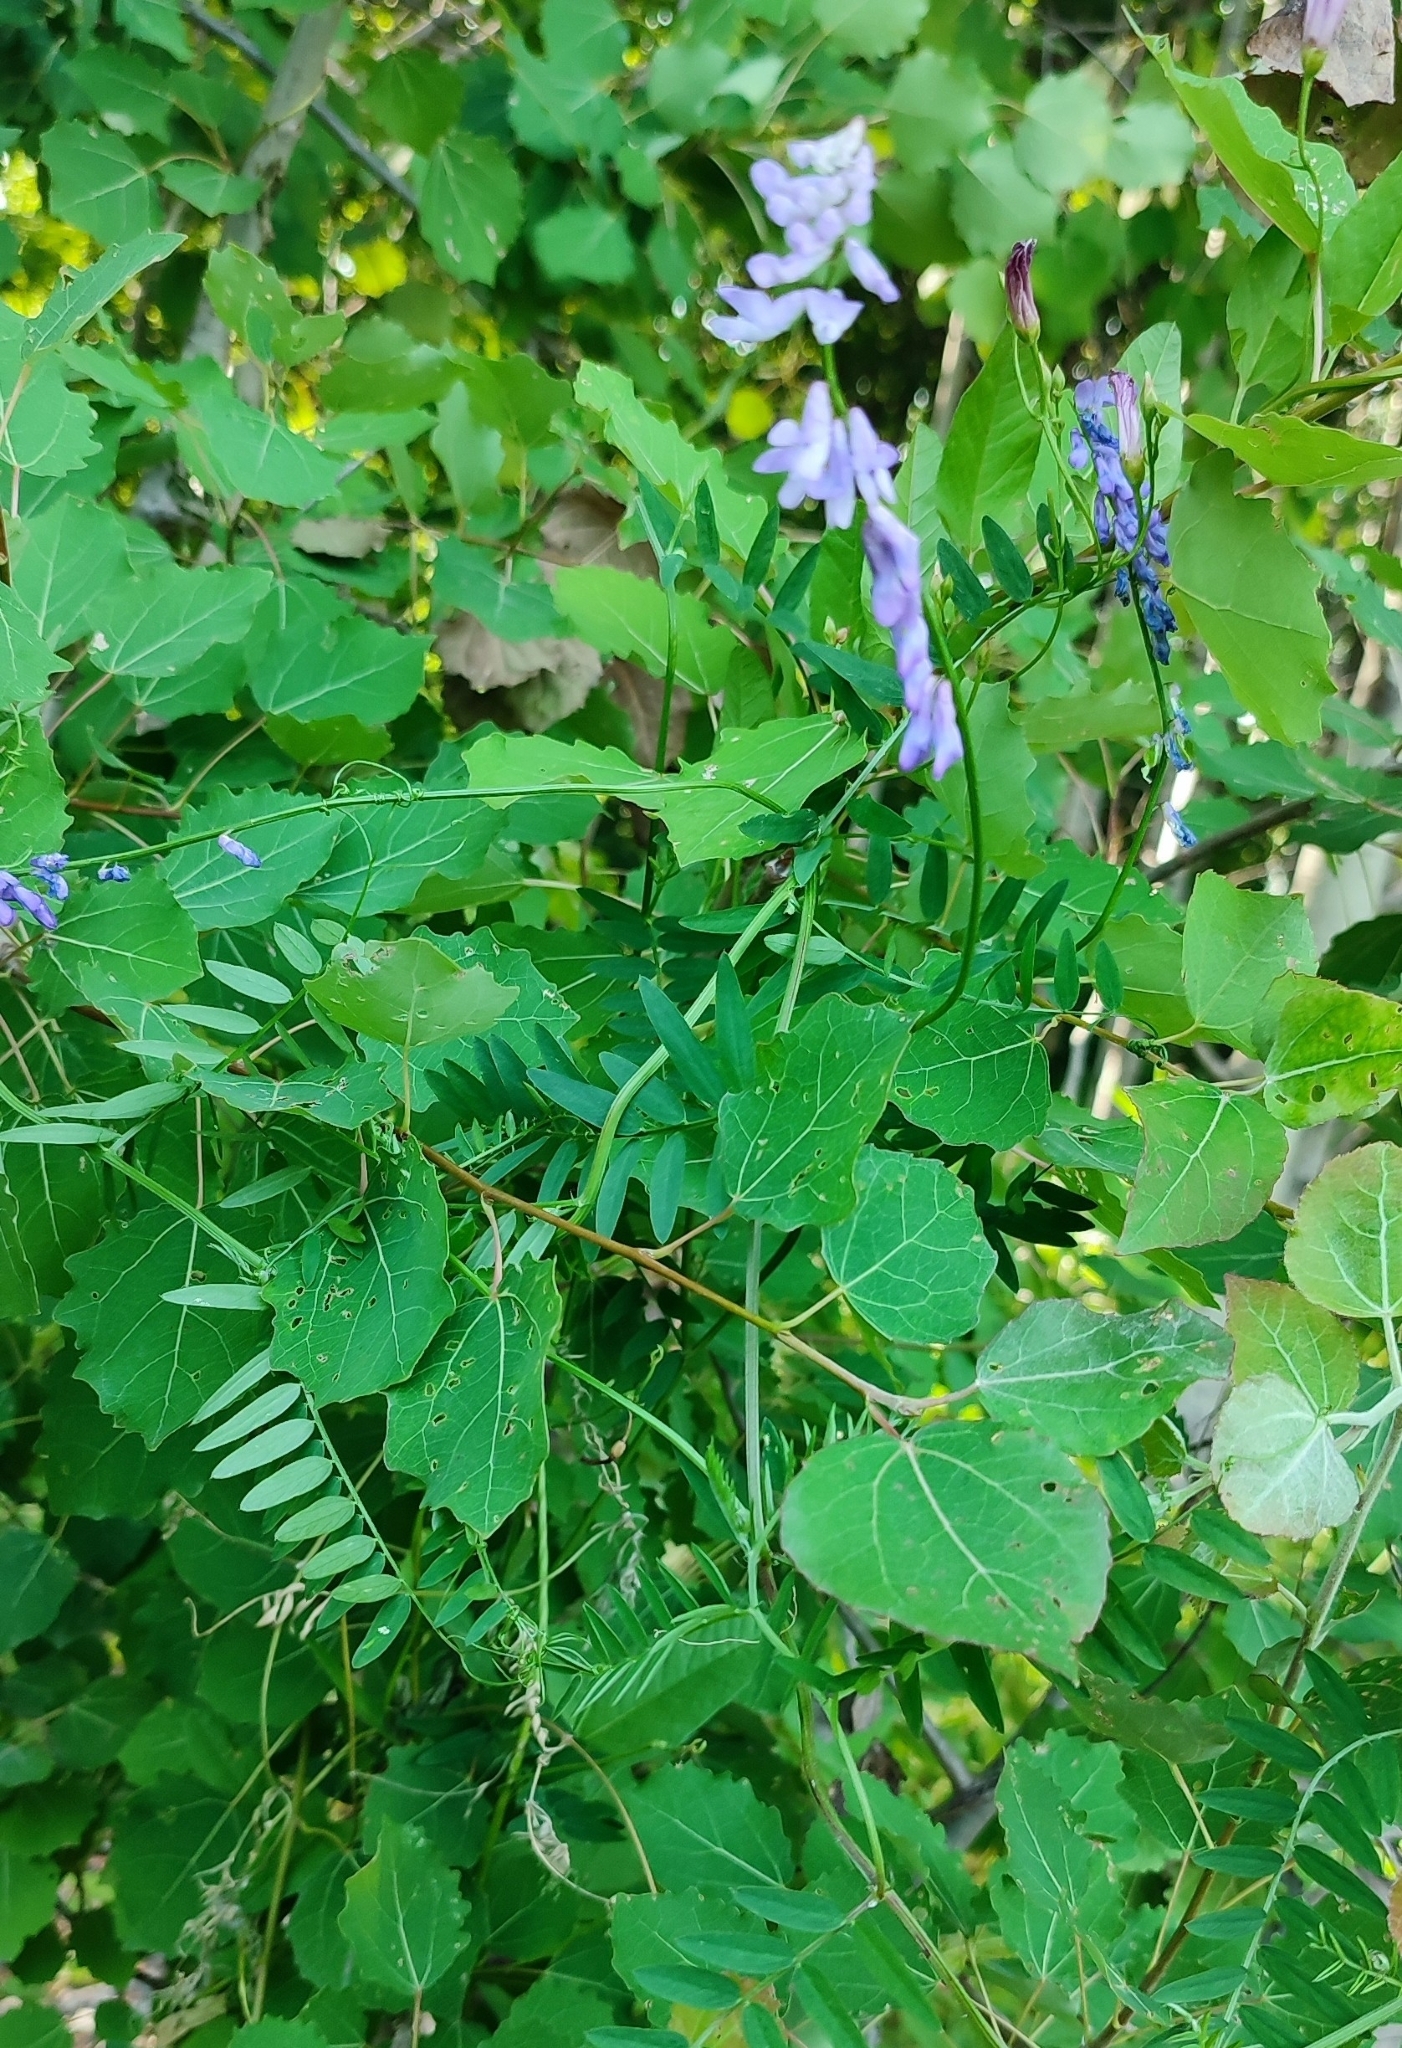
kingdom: Plantae
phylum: Tracheophyta
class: Magnoliopsida
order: Fabales
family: Fabaceae
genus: Vicia
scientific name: Vicia cracca
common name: Bird vetch
